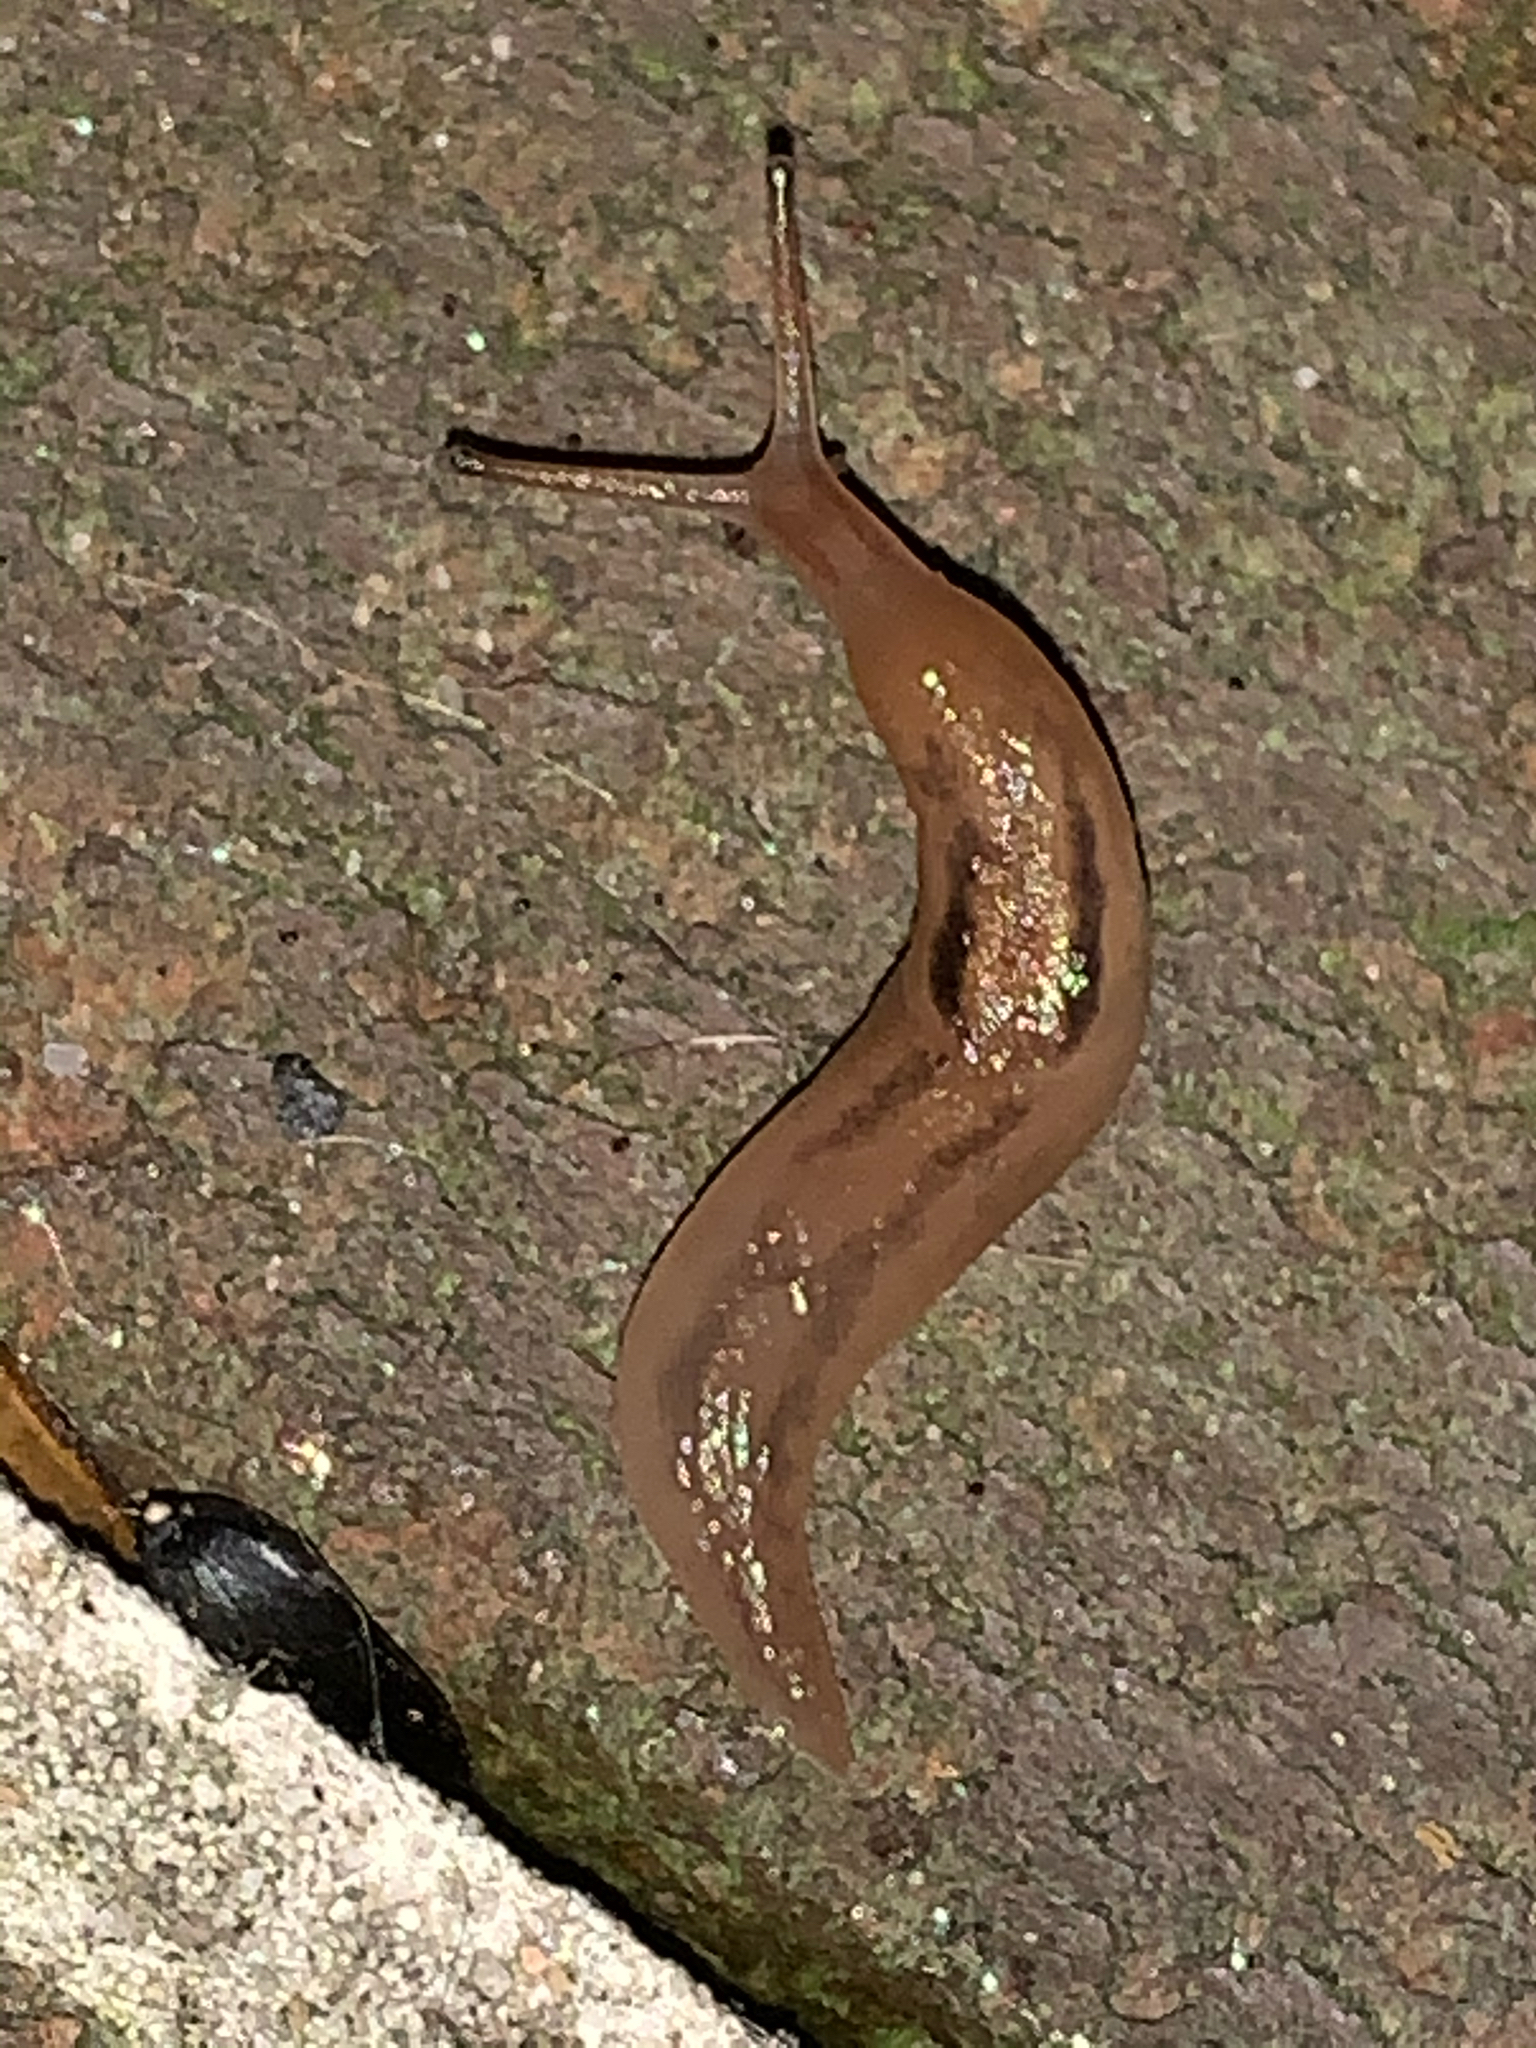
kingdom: Animalia
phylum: Mollusca
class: Gastropoda
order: Stylommatophora
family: Limacidae
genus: Ambigolimax
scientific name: Ambigolimax
